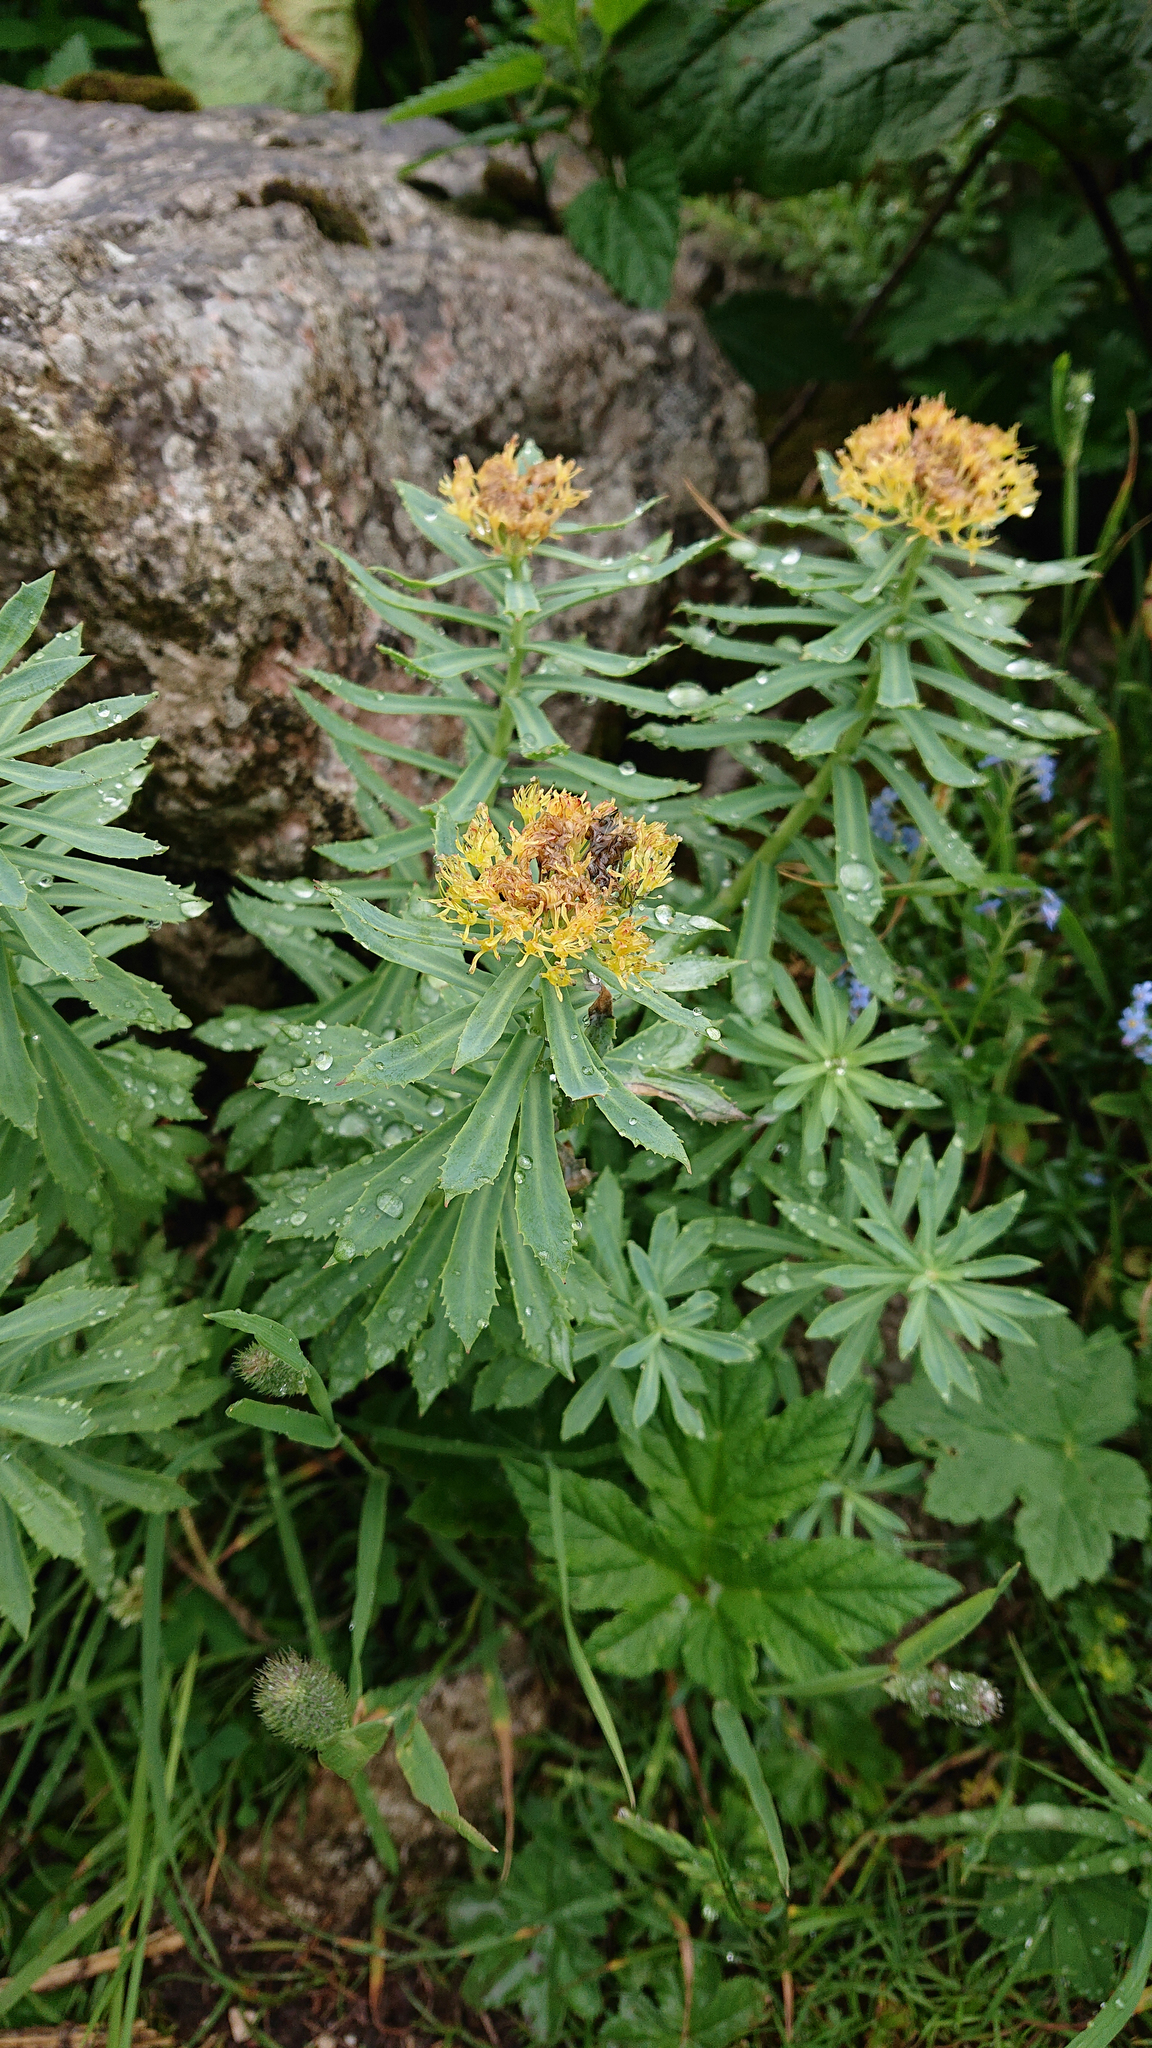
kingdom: Plantae
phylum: Tracheophyta
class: Magnoliopsida
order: Saxifragales
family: Crassulaceae
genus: Rhodiola
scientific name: Rhodiola rosea
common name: Roseroot
